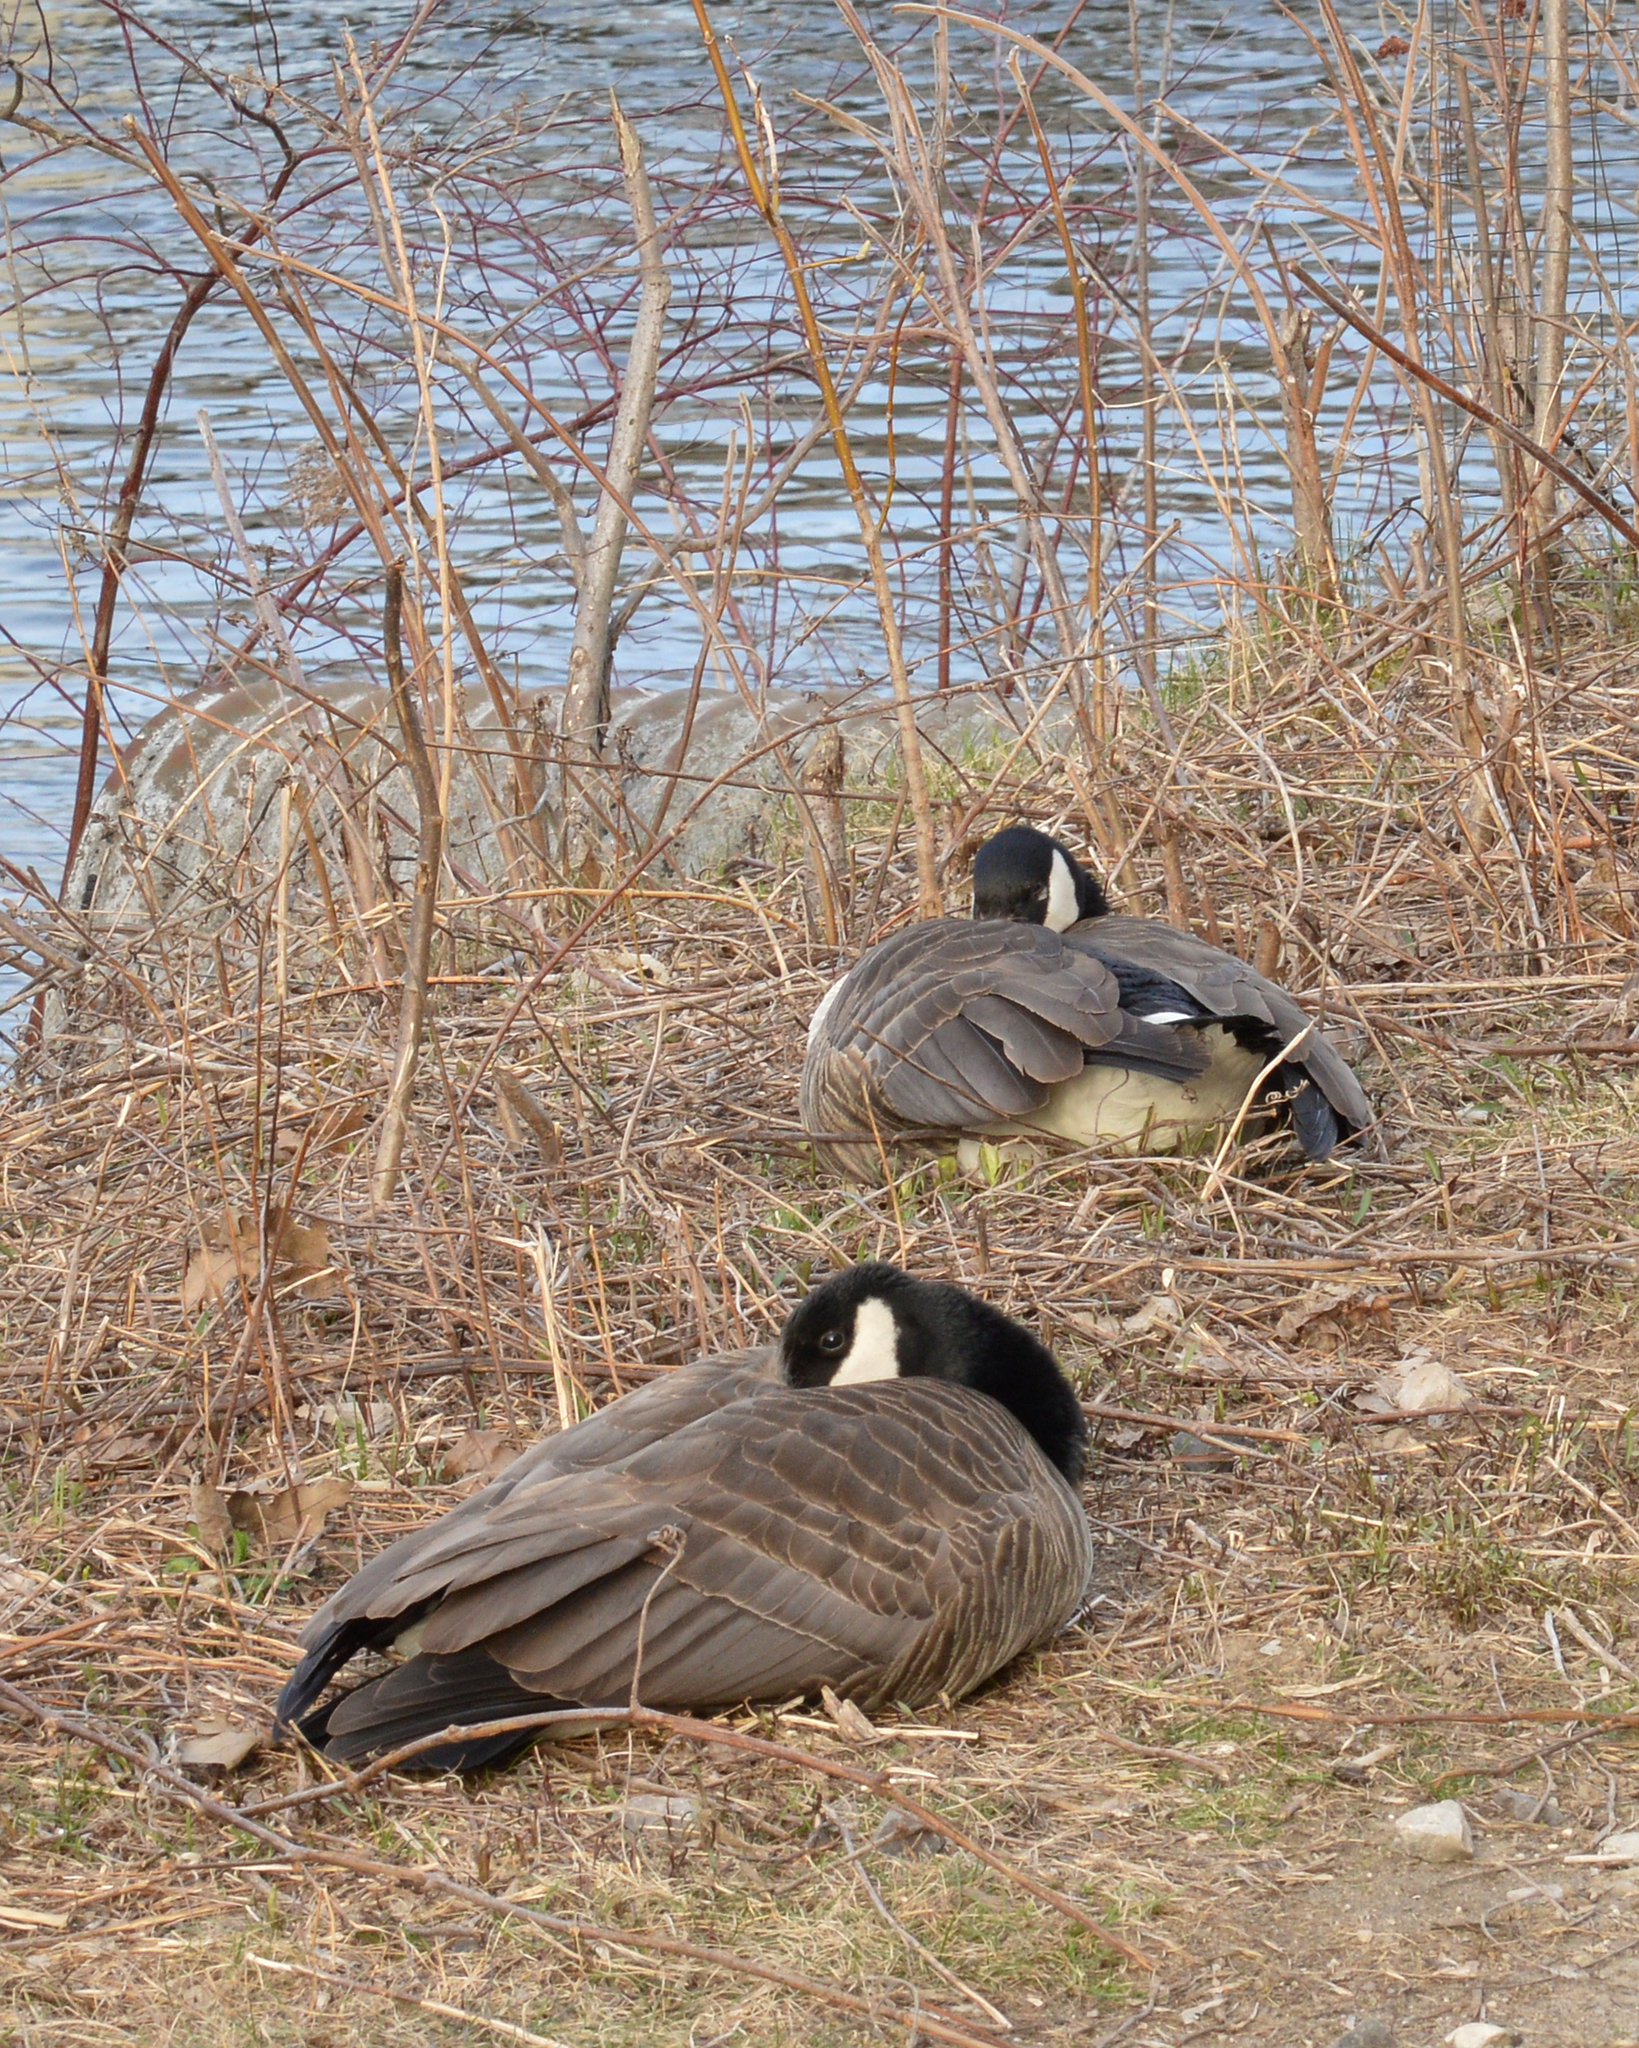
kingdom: Animalia
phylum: Chordata
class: Aves
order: Anseriformes
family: Anatidae
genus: Branta
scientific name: Branta canadensis
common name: Canada goose
